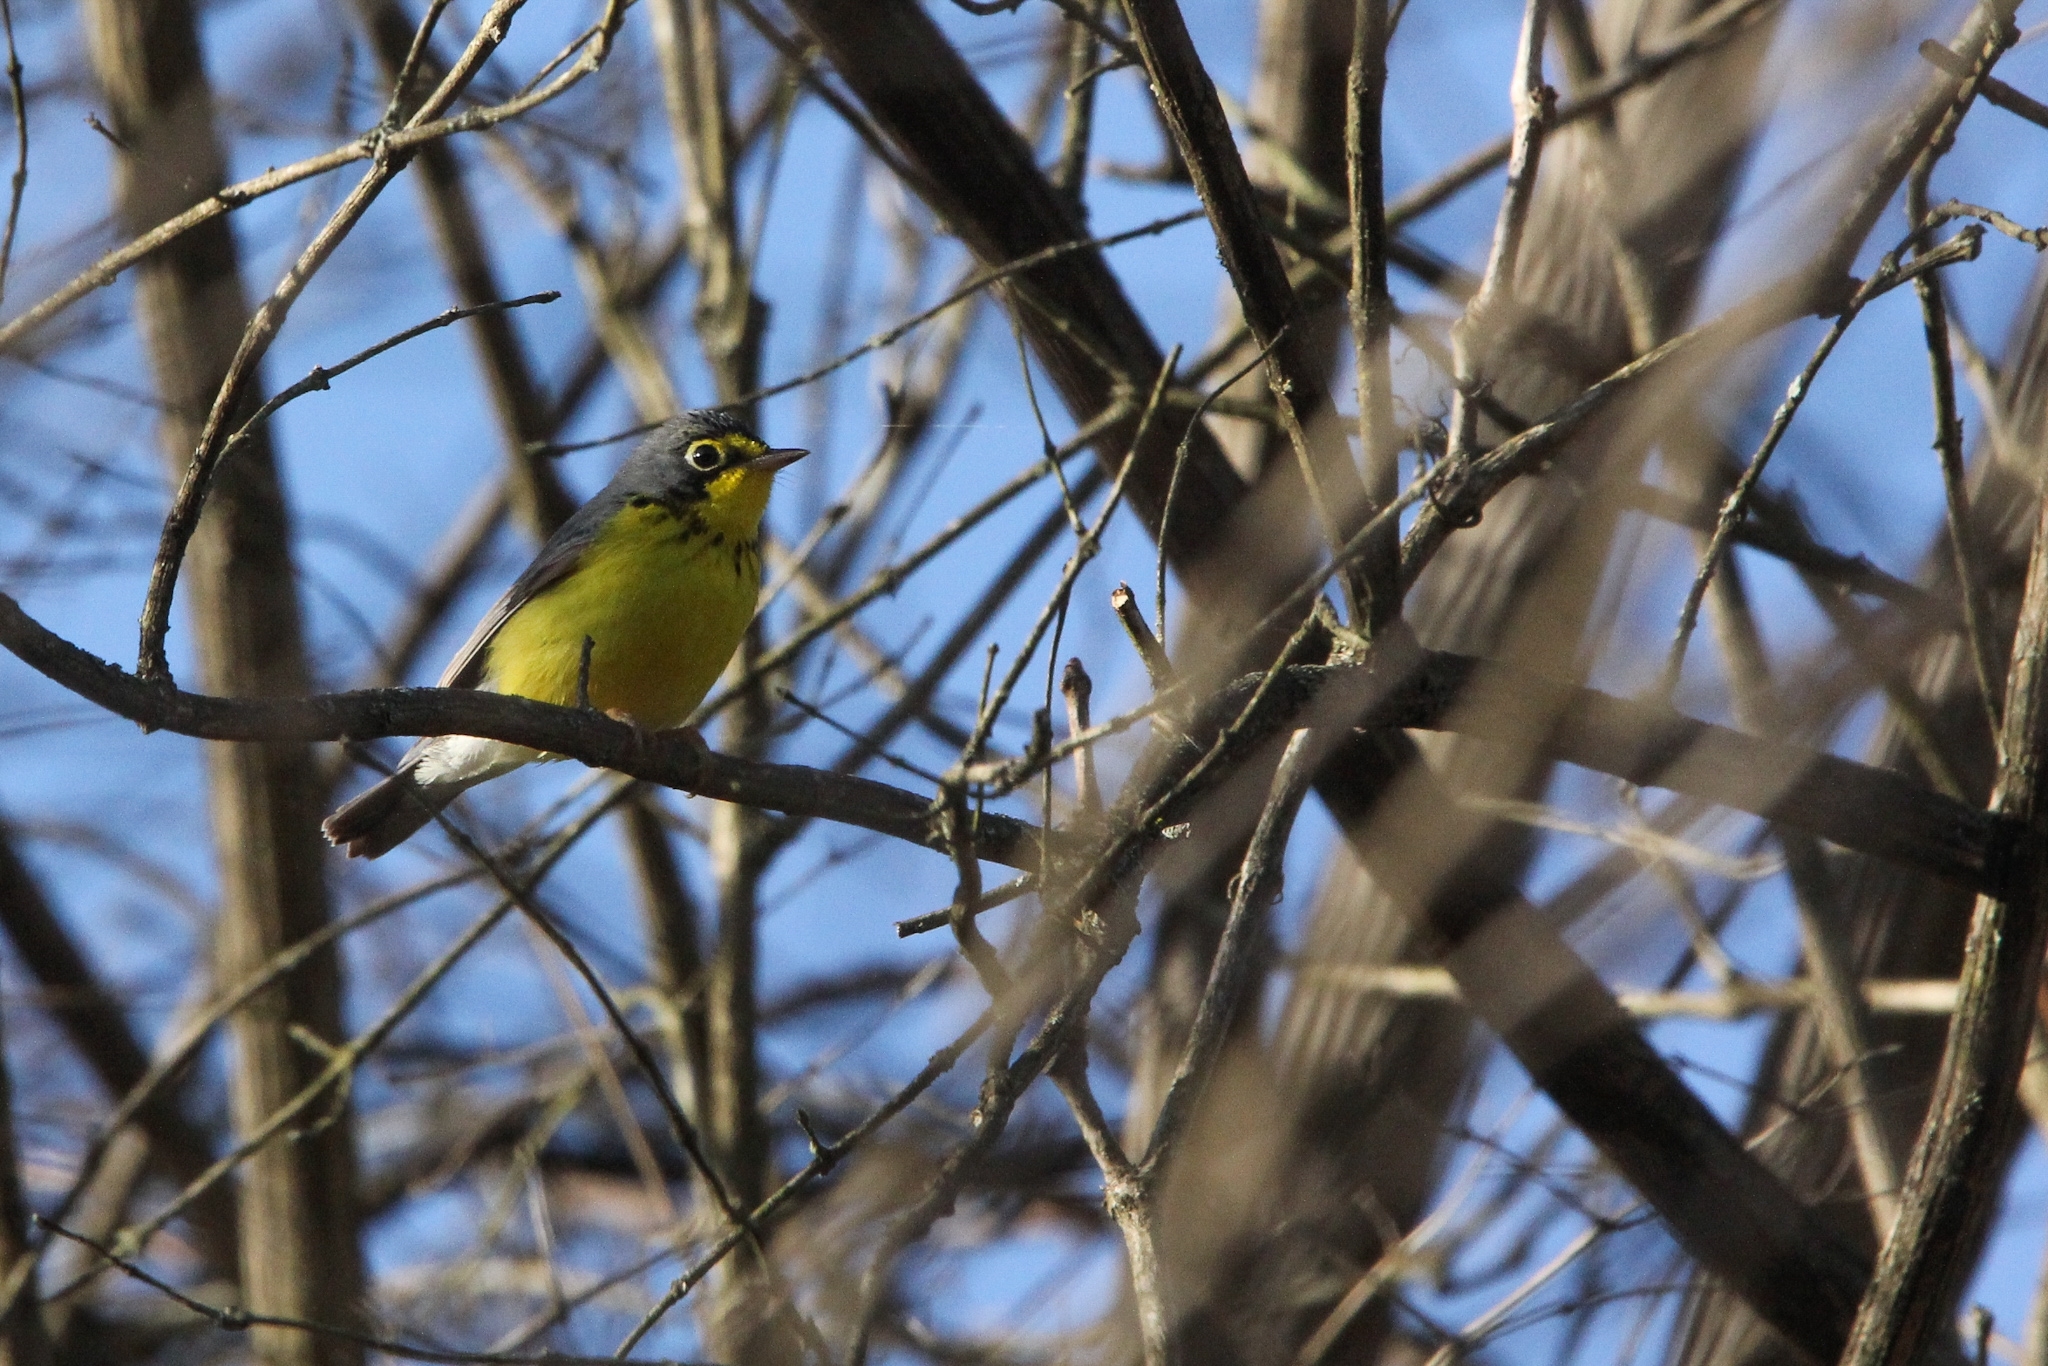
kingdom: Animalia
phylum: Chordata
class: Aves
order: Passeriformes
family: Parulidae
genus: Cardellina
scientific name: Cardellina canadensis
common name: Canada warbler
